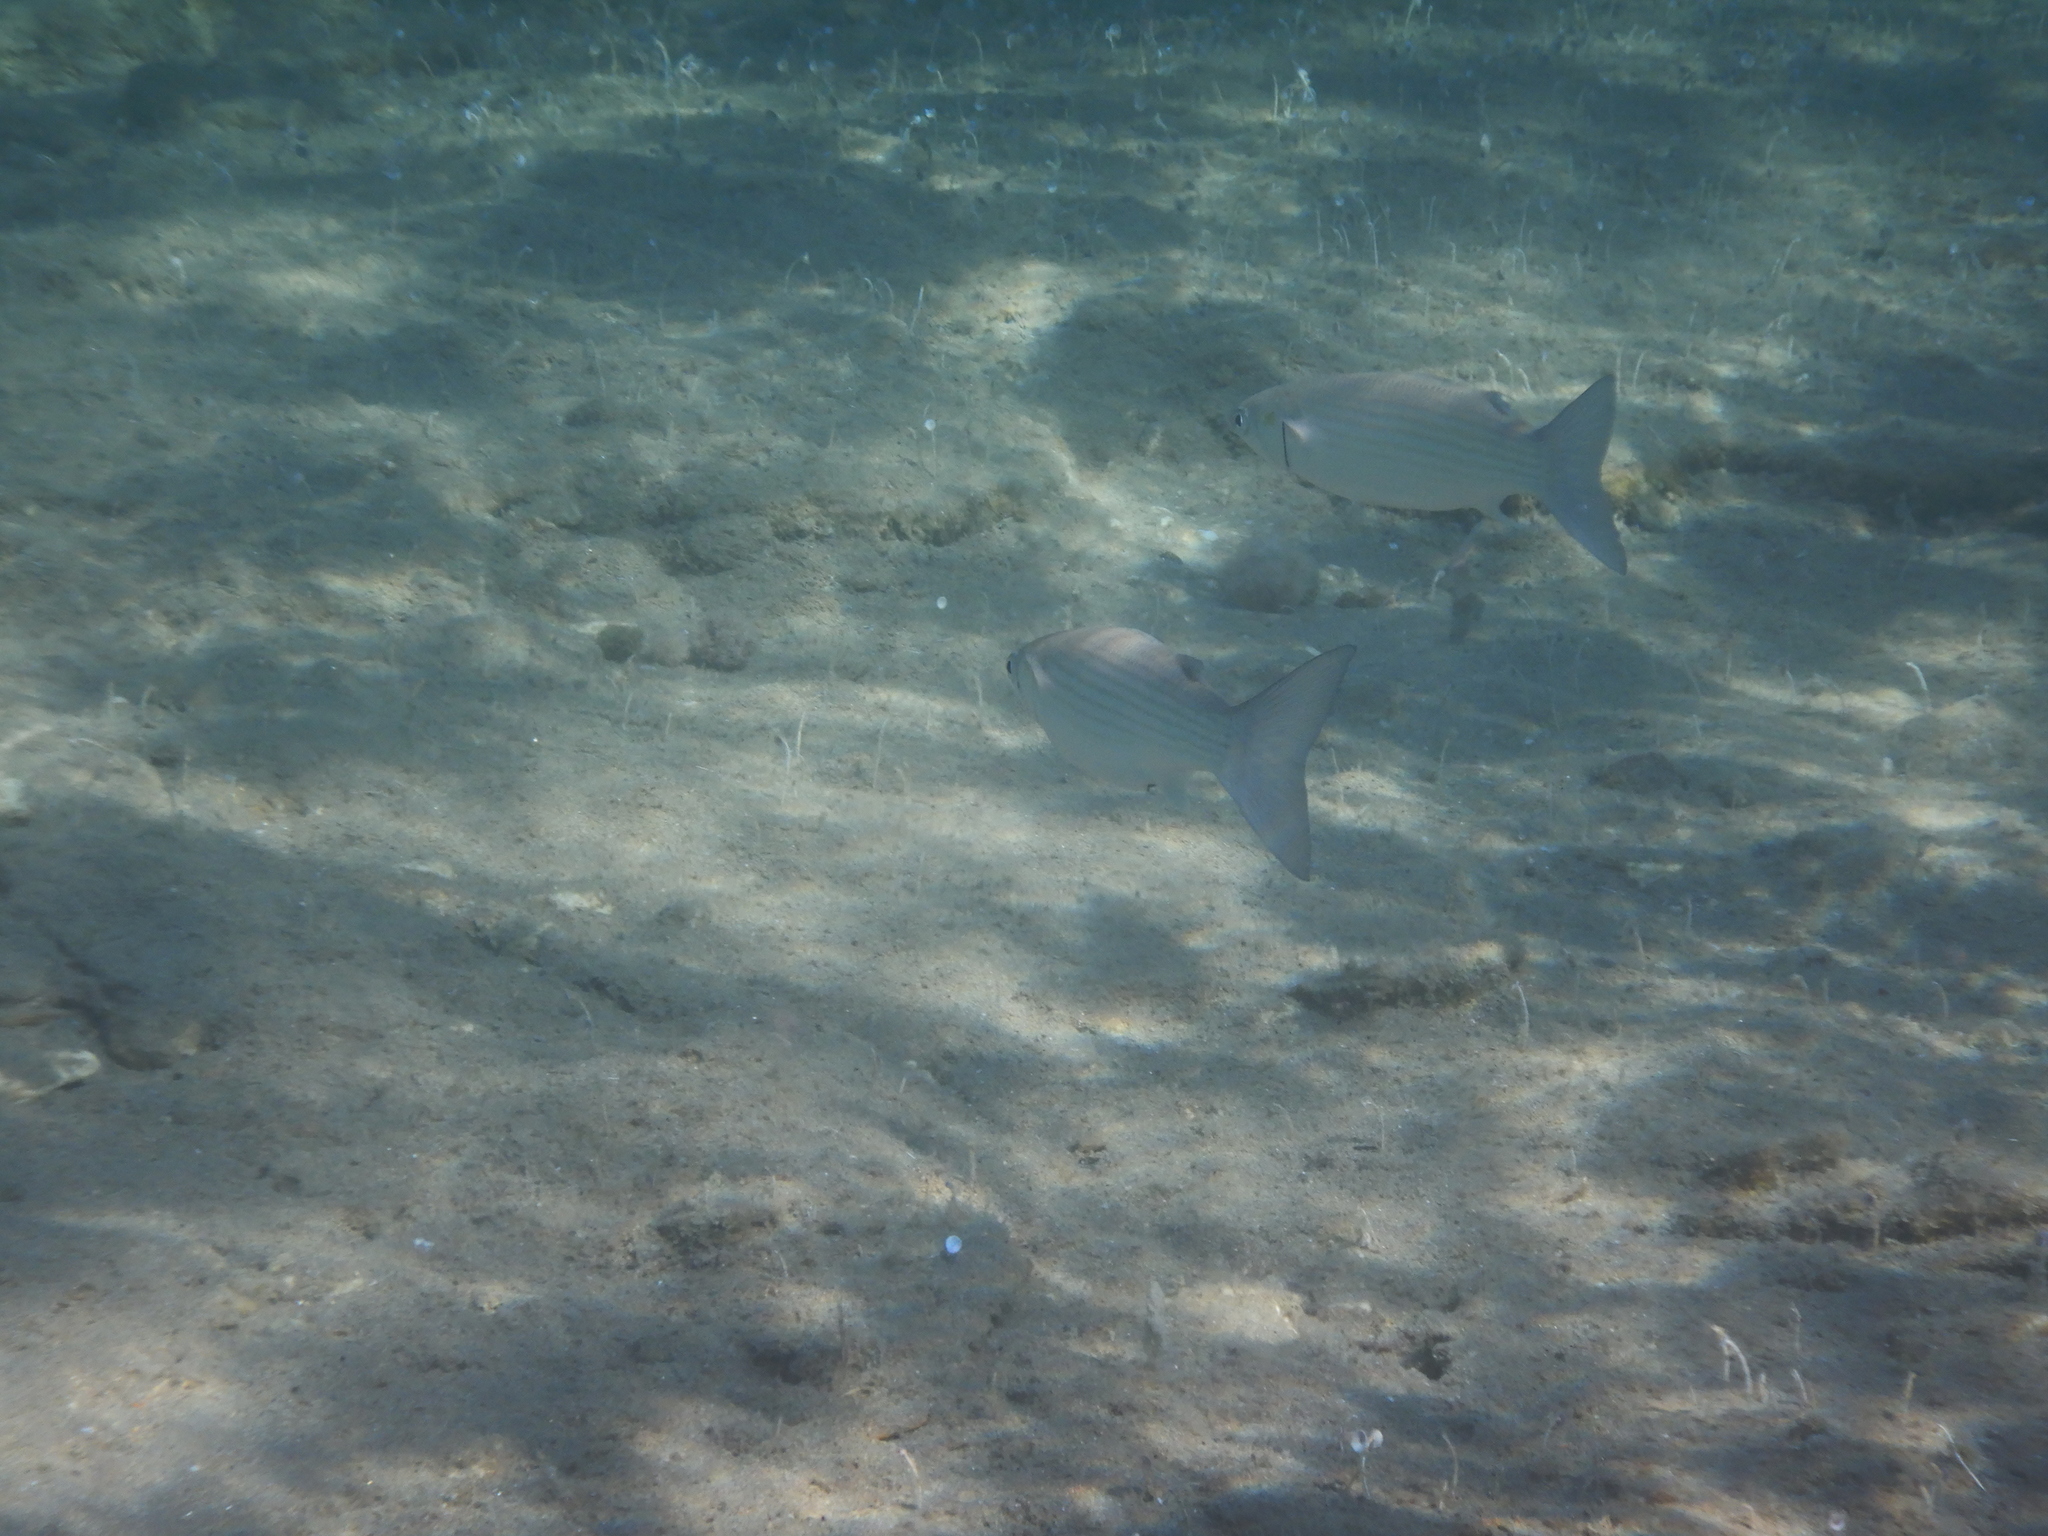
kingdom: Animalia
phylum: Chordata
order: Mugiliformes
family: Mugilidae
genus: Chelon
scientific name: Chelon
